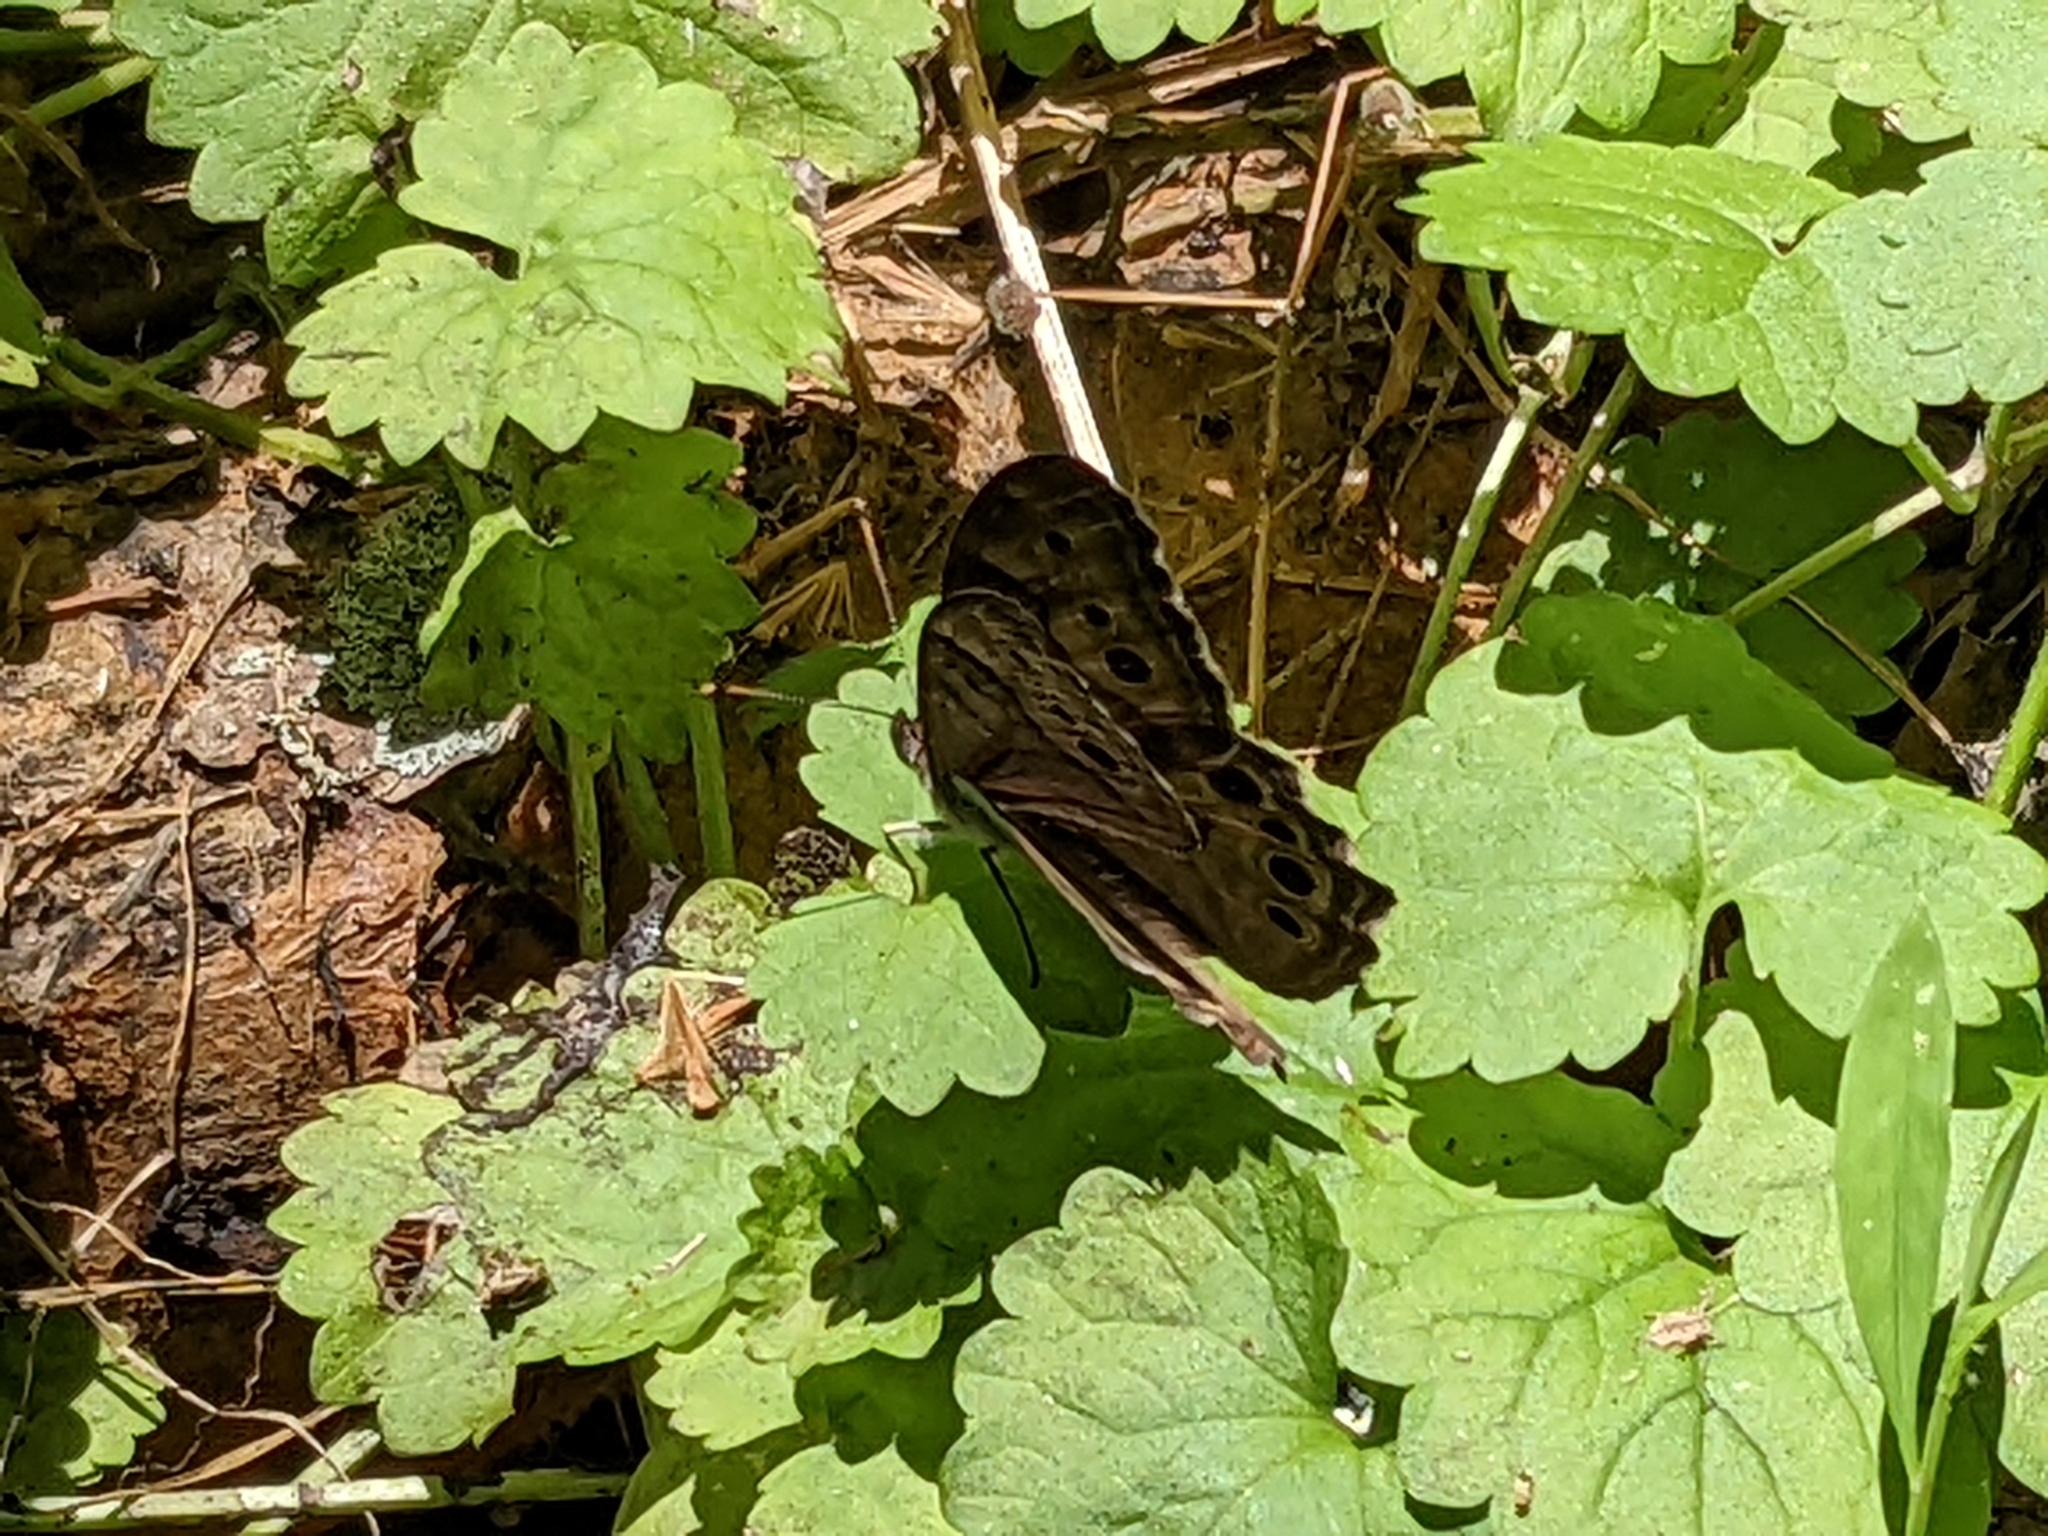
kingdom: Animalia
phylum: Arthropoda
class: Insecta
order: Lepidoptera
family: Nymphalidae
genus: Lethe
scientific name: Lethe anthedon
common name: Northern pearly-eye
